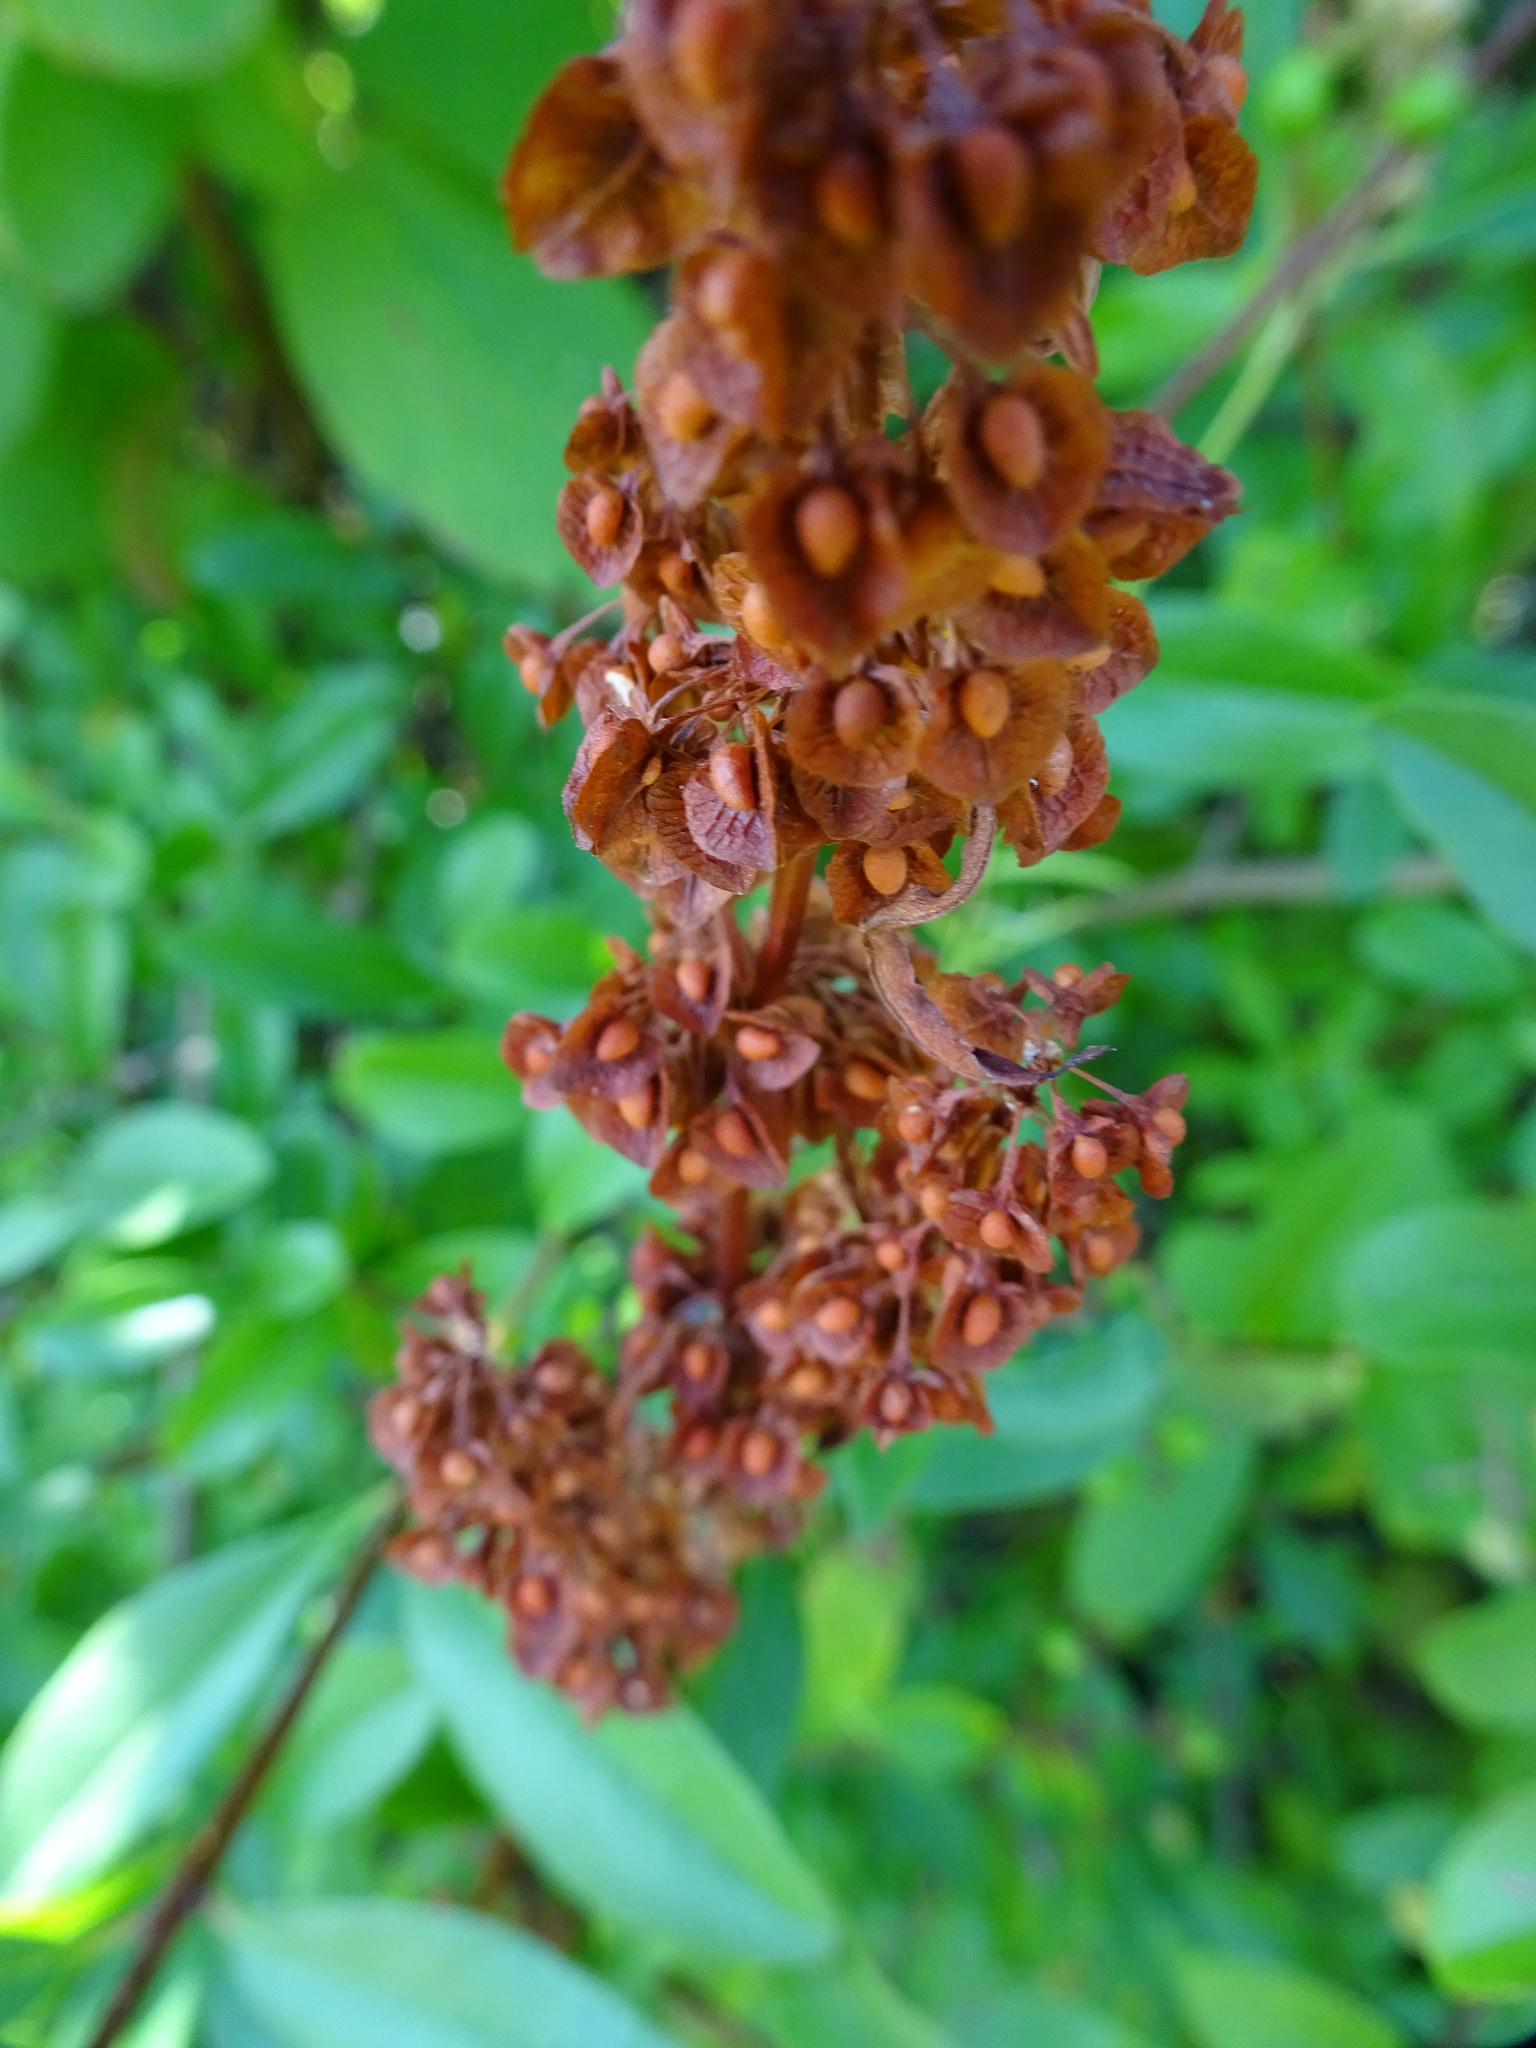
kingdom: Plantae
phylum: Tracheophyta
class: Magnoliopsida
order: Caryophyllales
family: Polygonaceae
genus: Rumex
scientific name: Rumex crispus
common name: Curled dock
